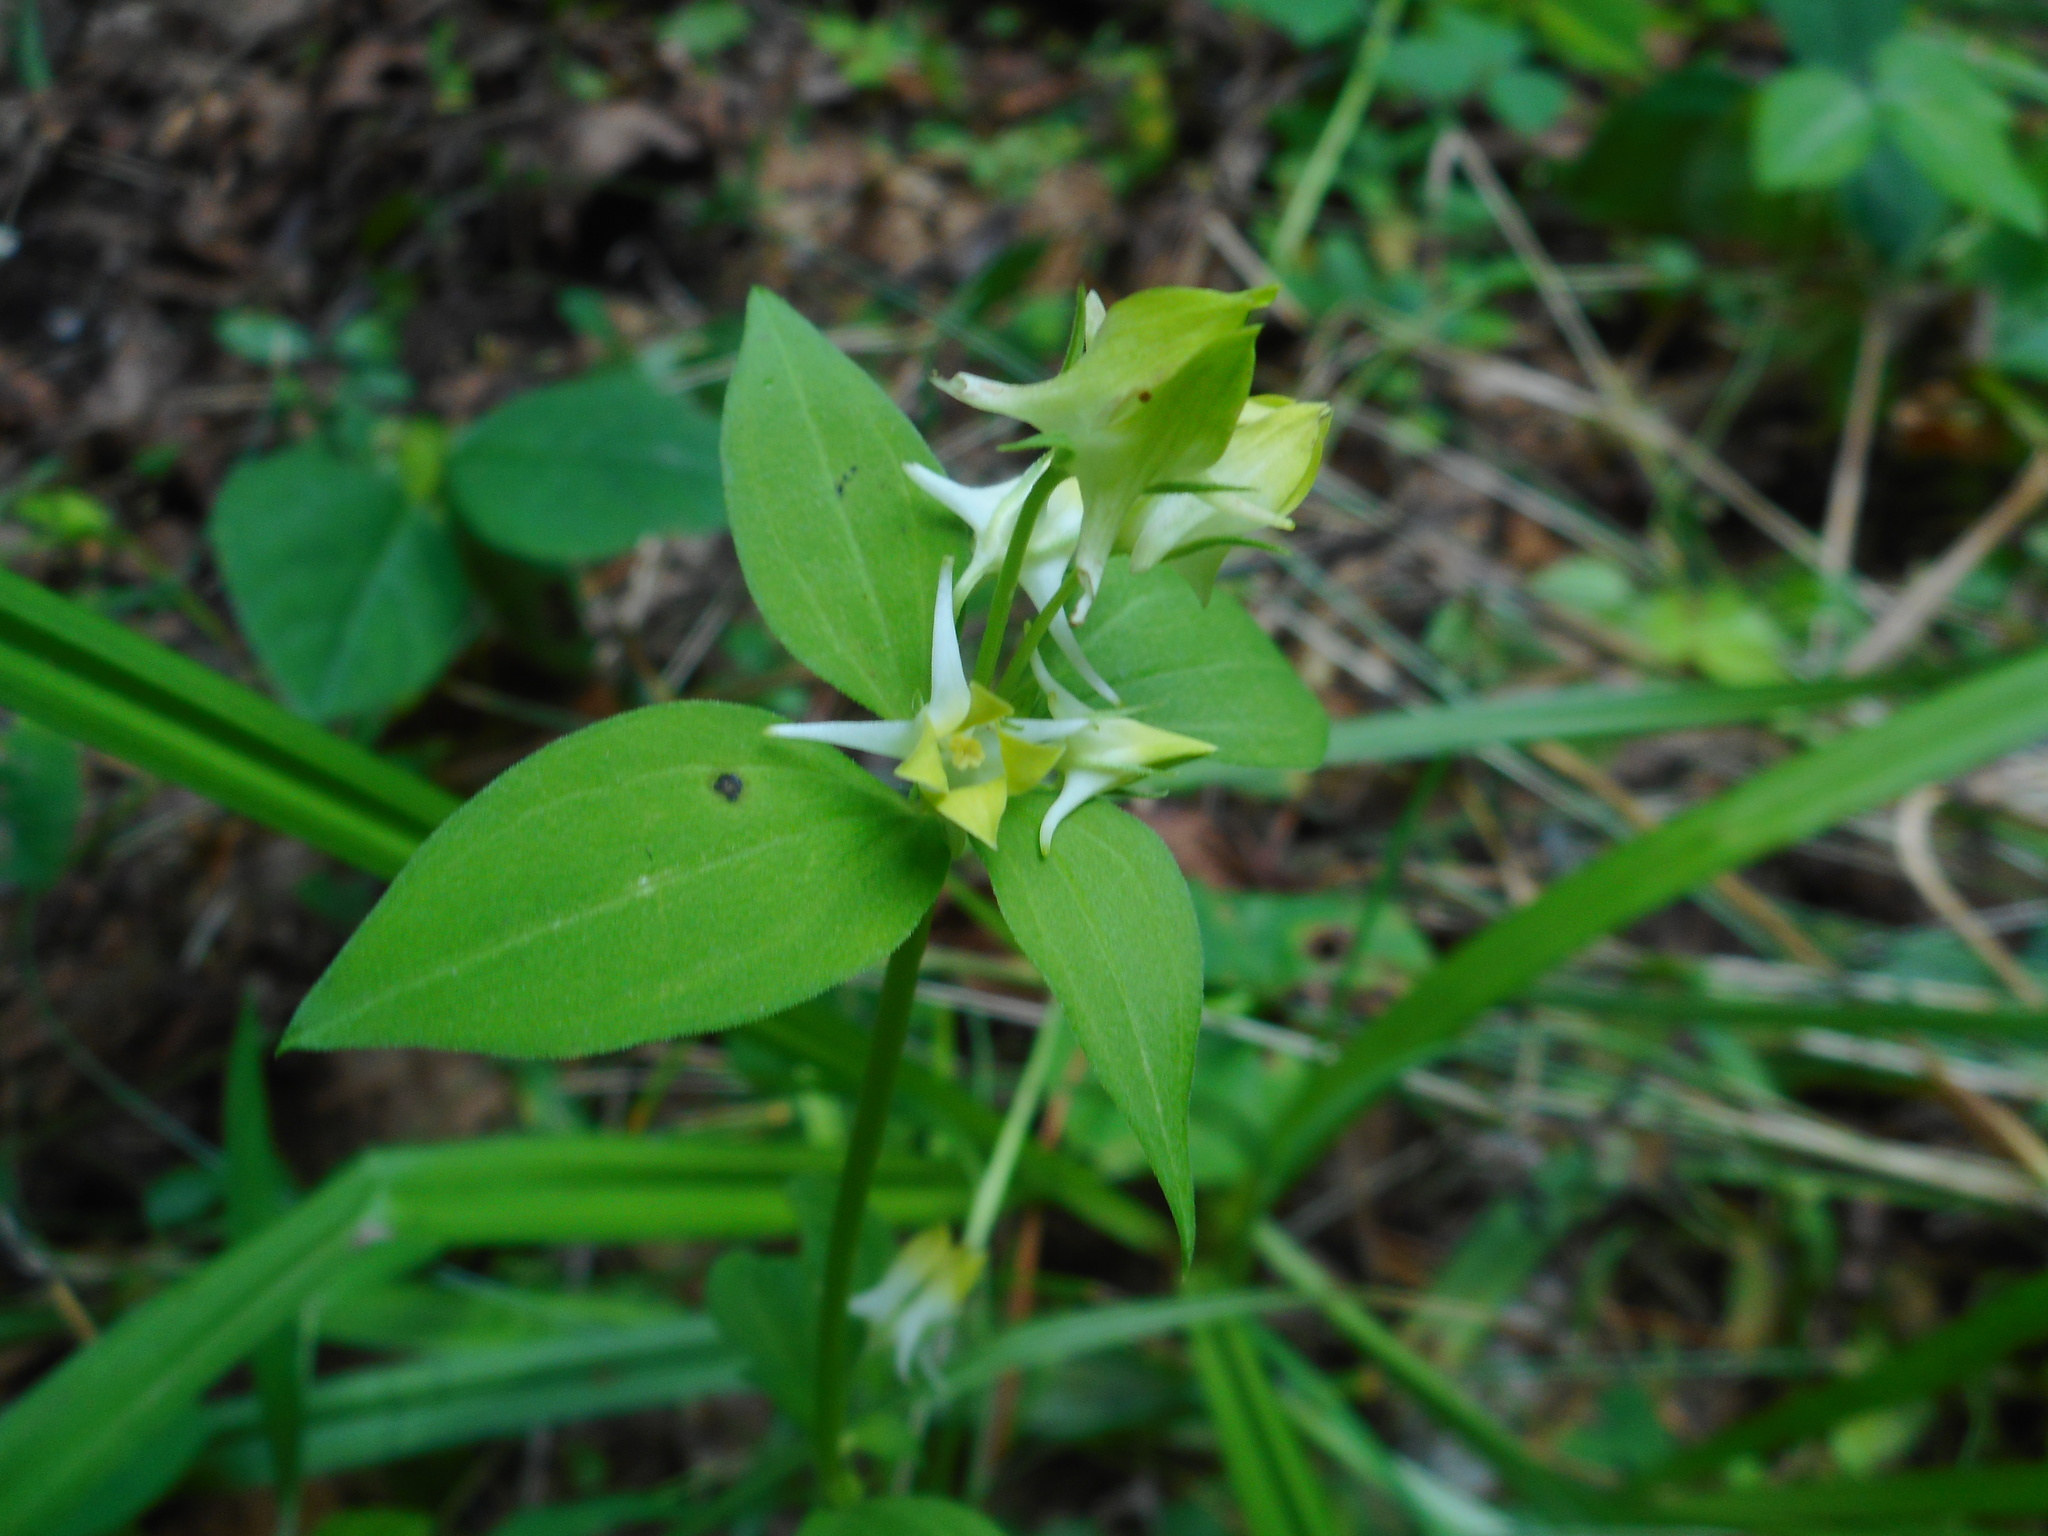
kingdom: Plantae
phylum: Tracheophyta
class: Magnoliopsida
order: Gentianales
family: Gentianaceae
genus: Halenia
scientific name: Halenia corniculata
